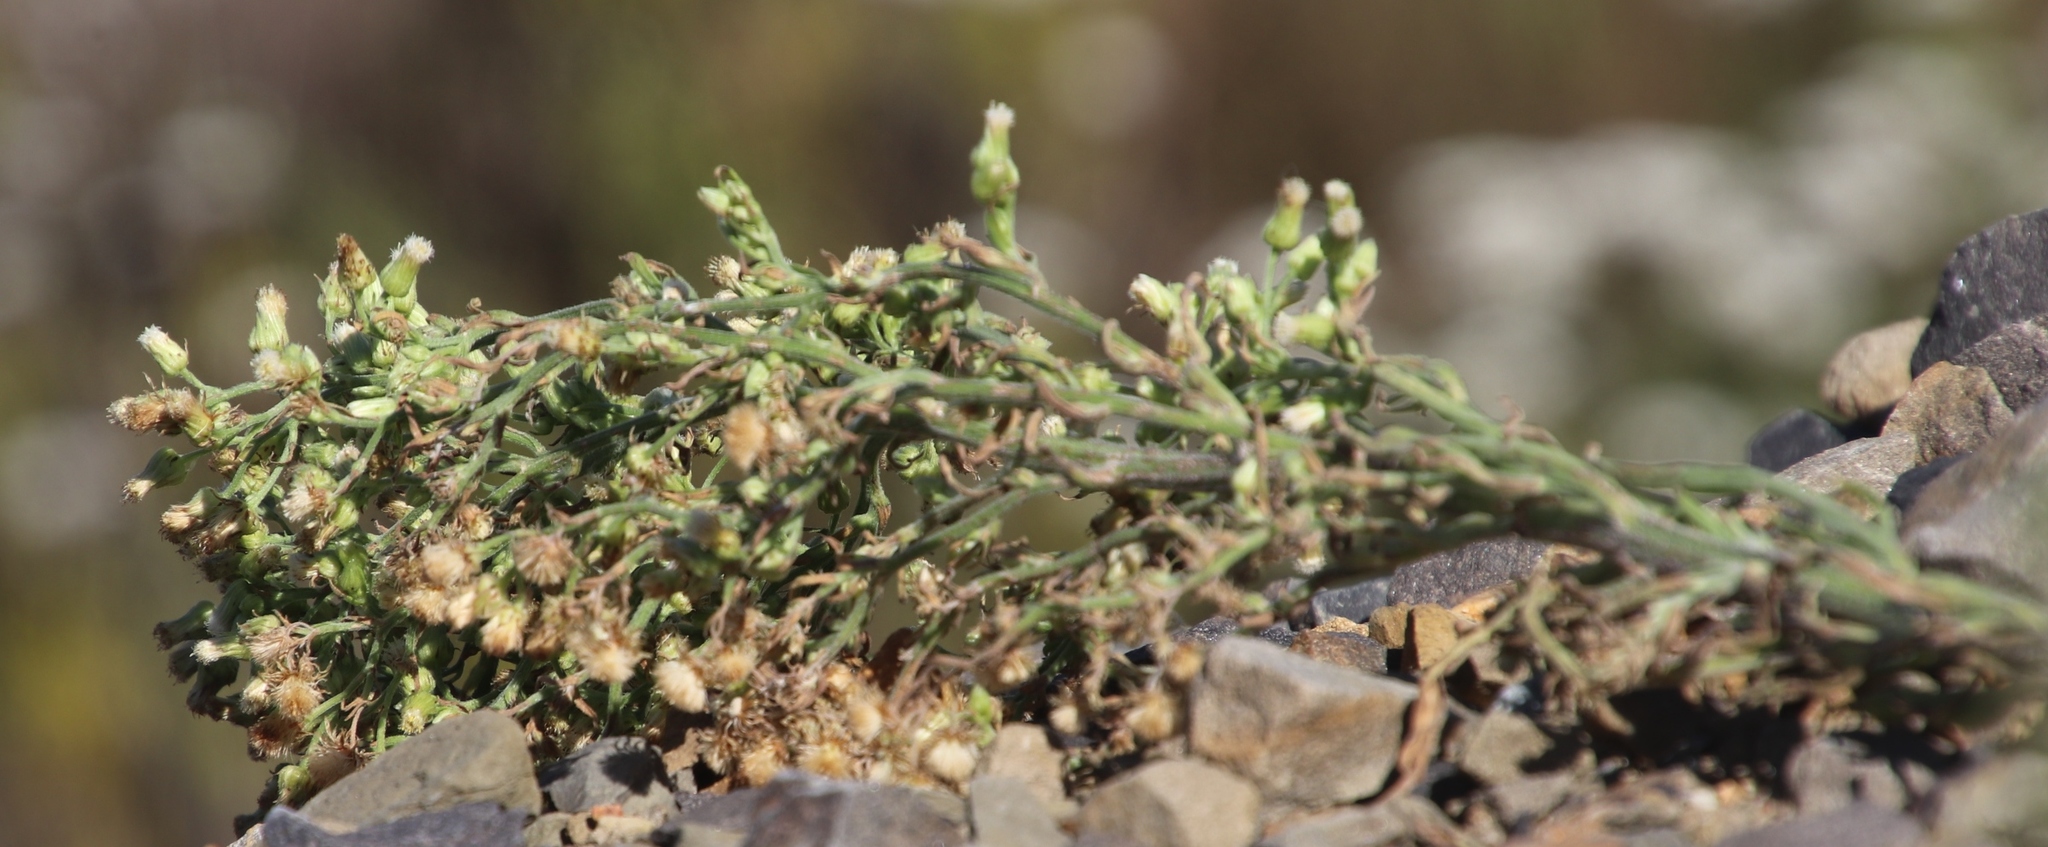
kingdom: Plantae
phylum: Tracheophyta
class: Magnoliopsida
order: Asterales
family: Asteraceae
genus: Erigeron
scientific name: Erigeron sumatrensis
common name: Daisy
